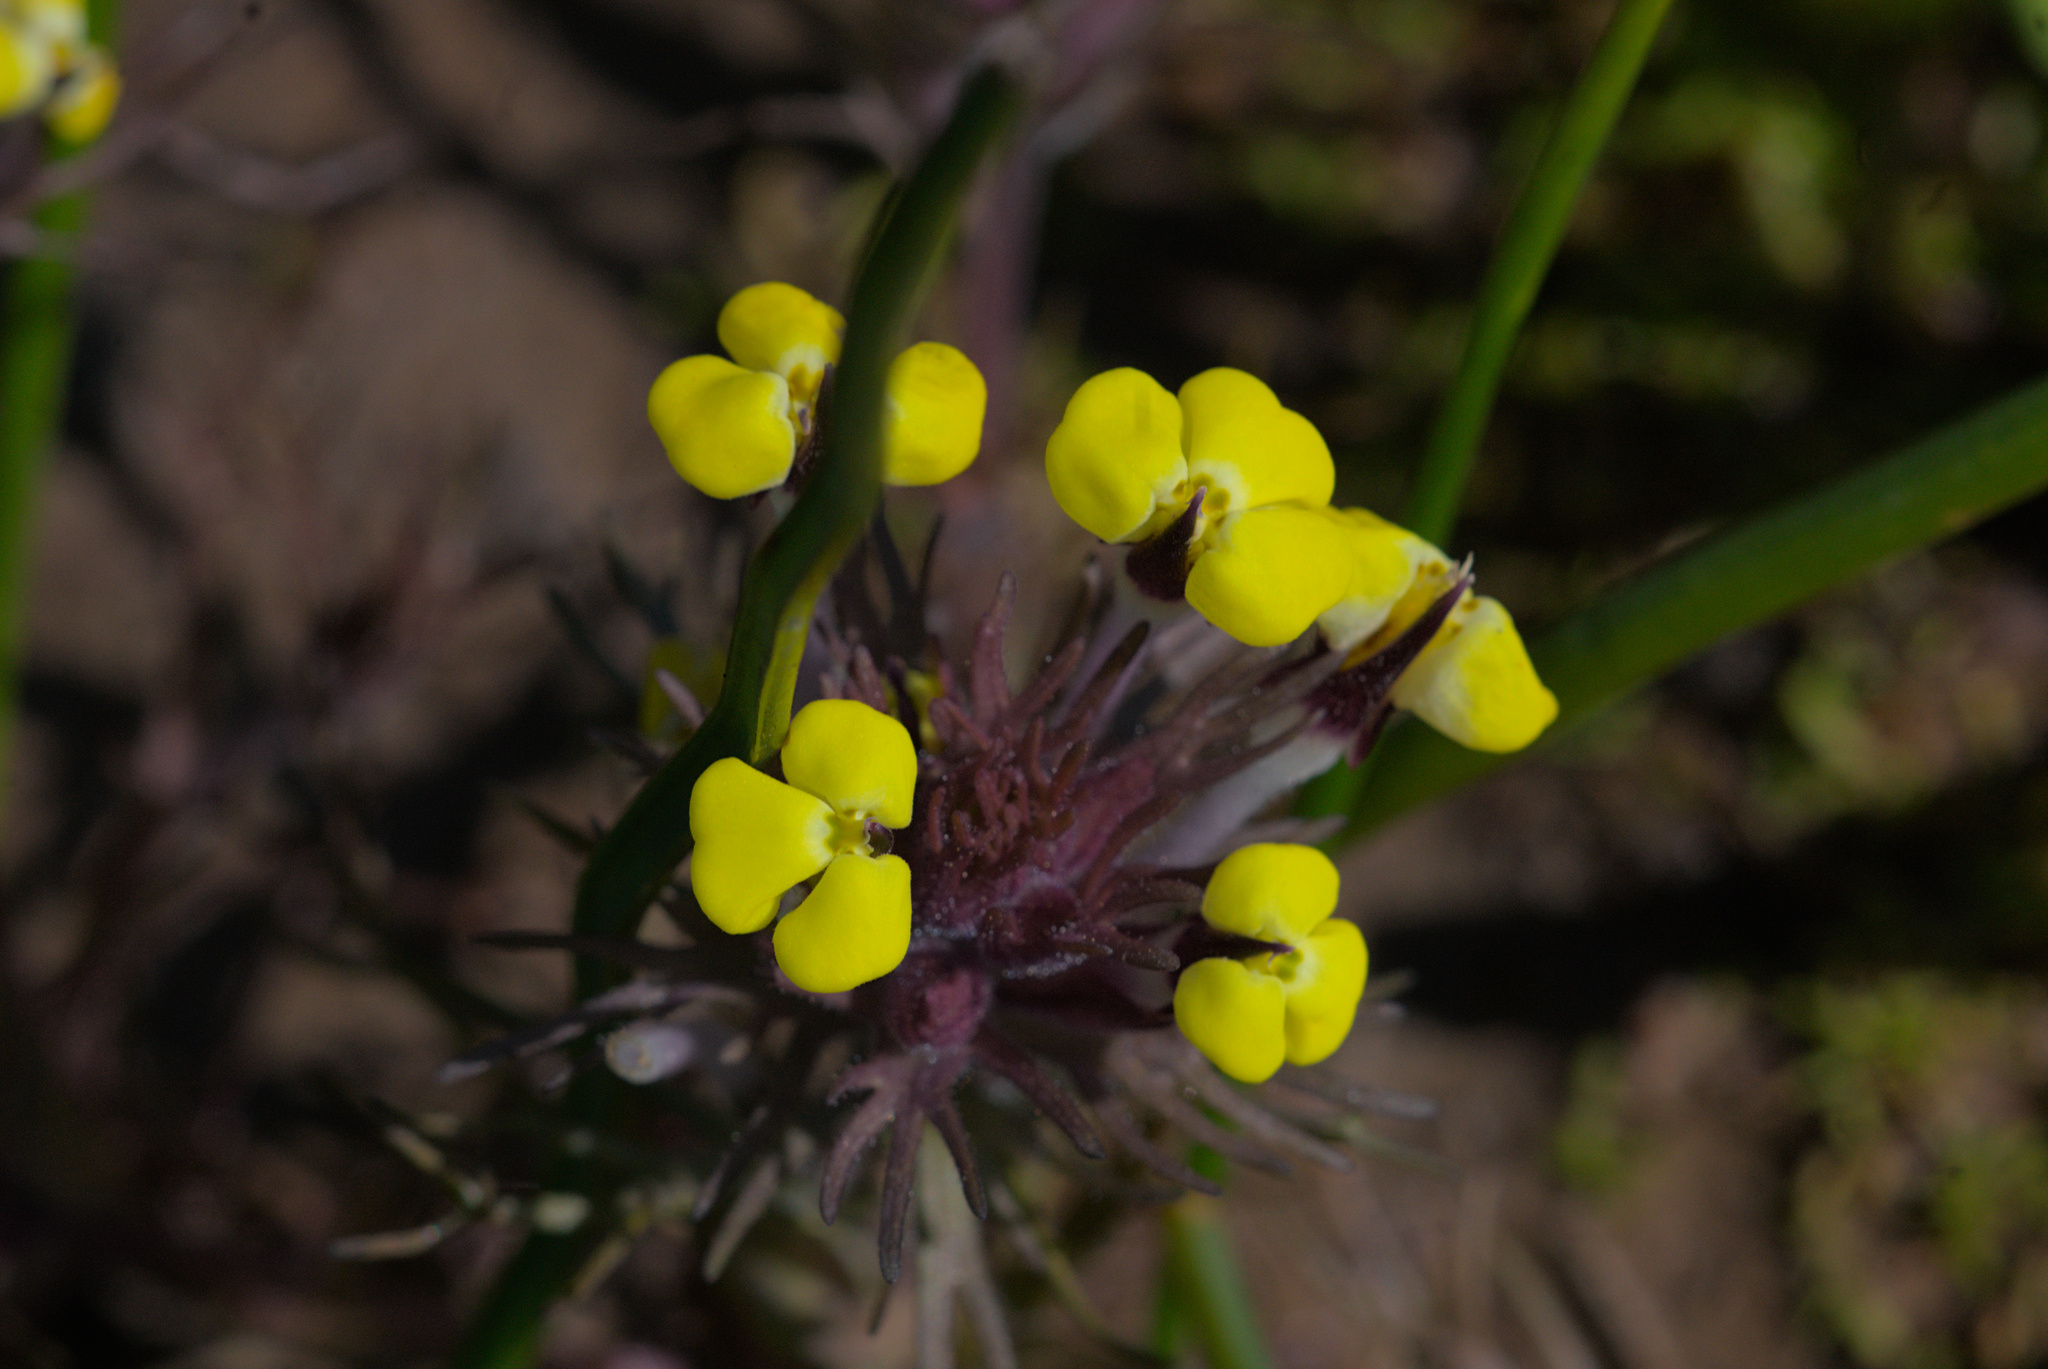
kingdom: Plantae
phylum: Tracheophyta
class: Magnoliopsida
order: Lamiales
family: Orobanchaceae
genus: Triphysaria
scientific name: Triphysaria eriantha
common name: Johnny-tuck
